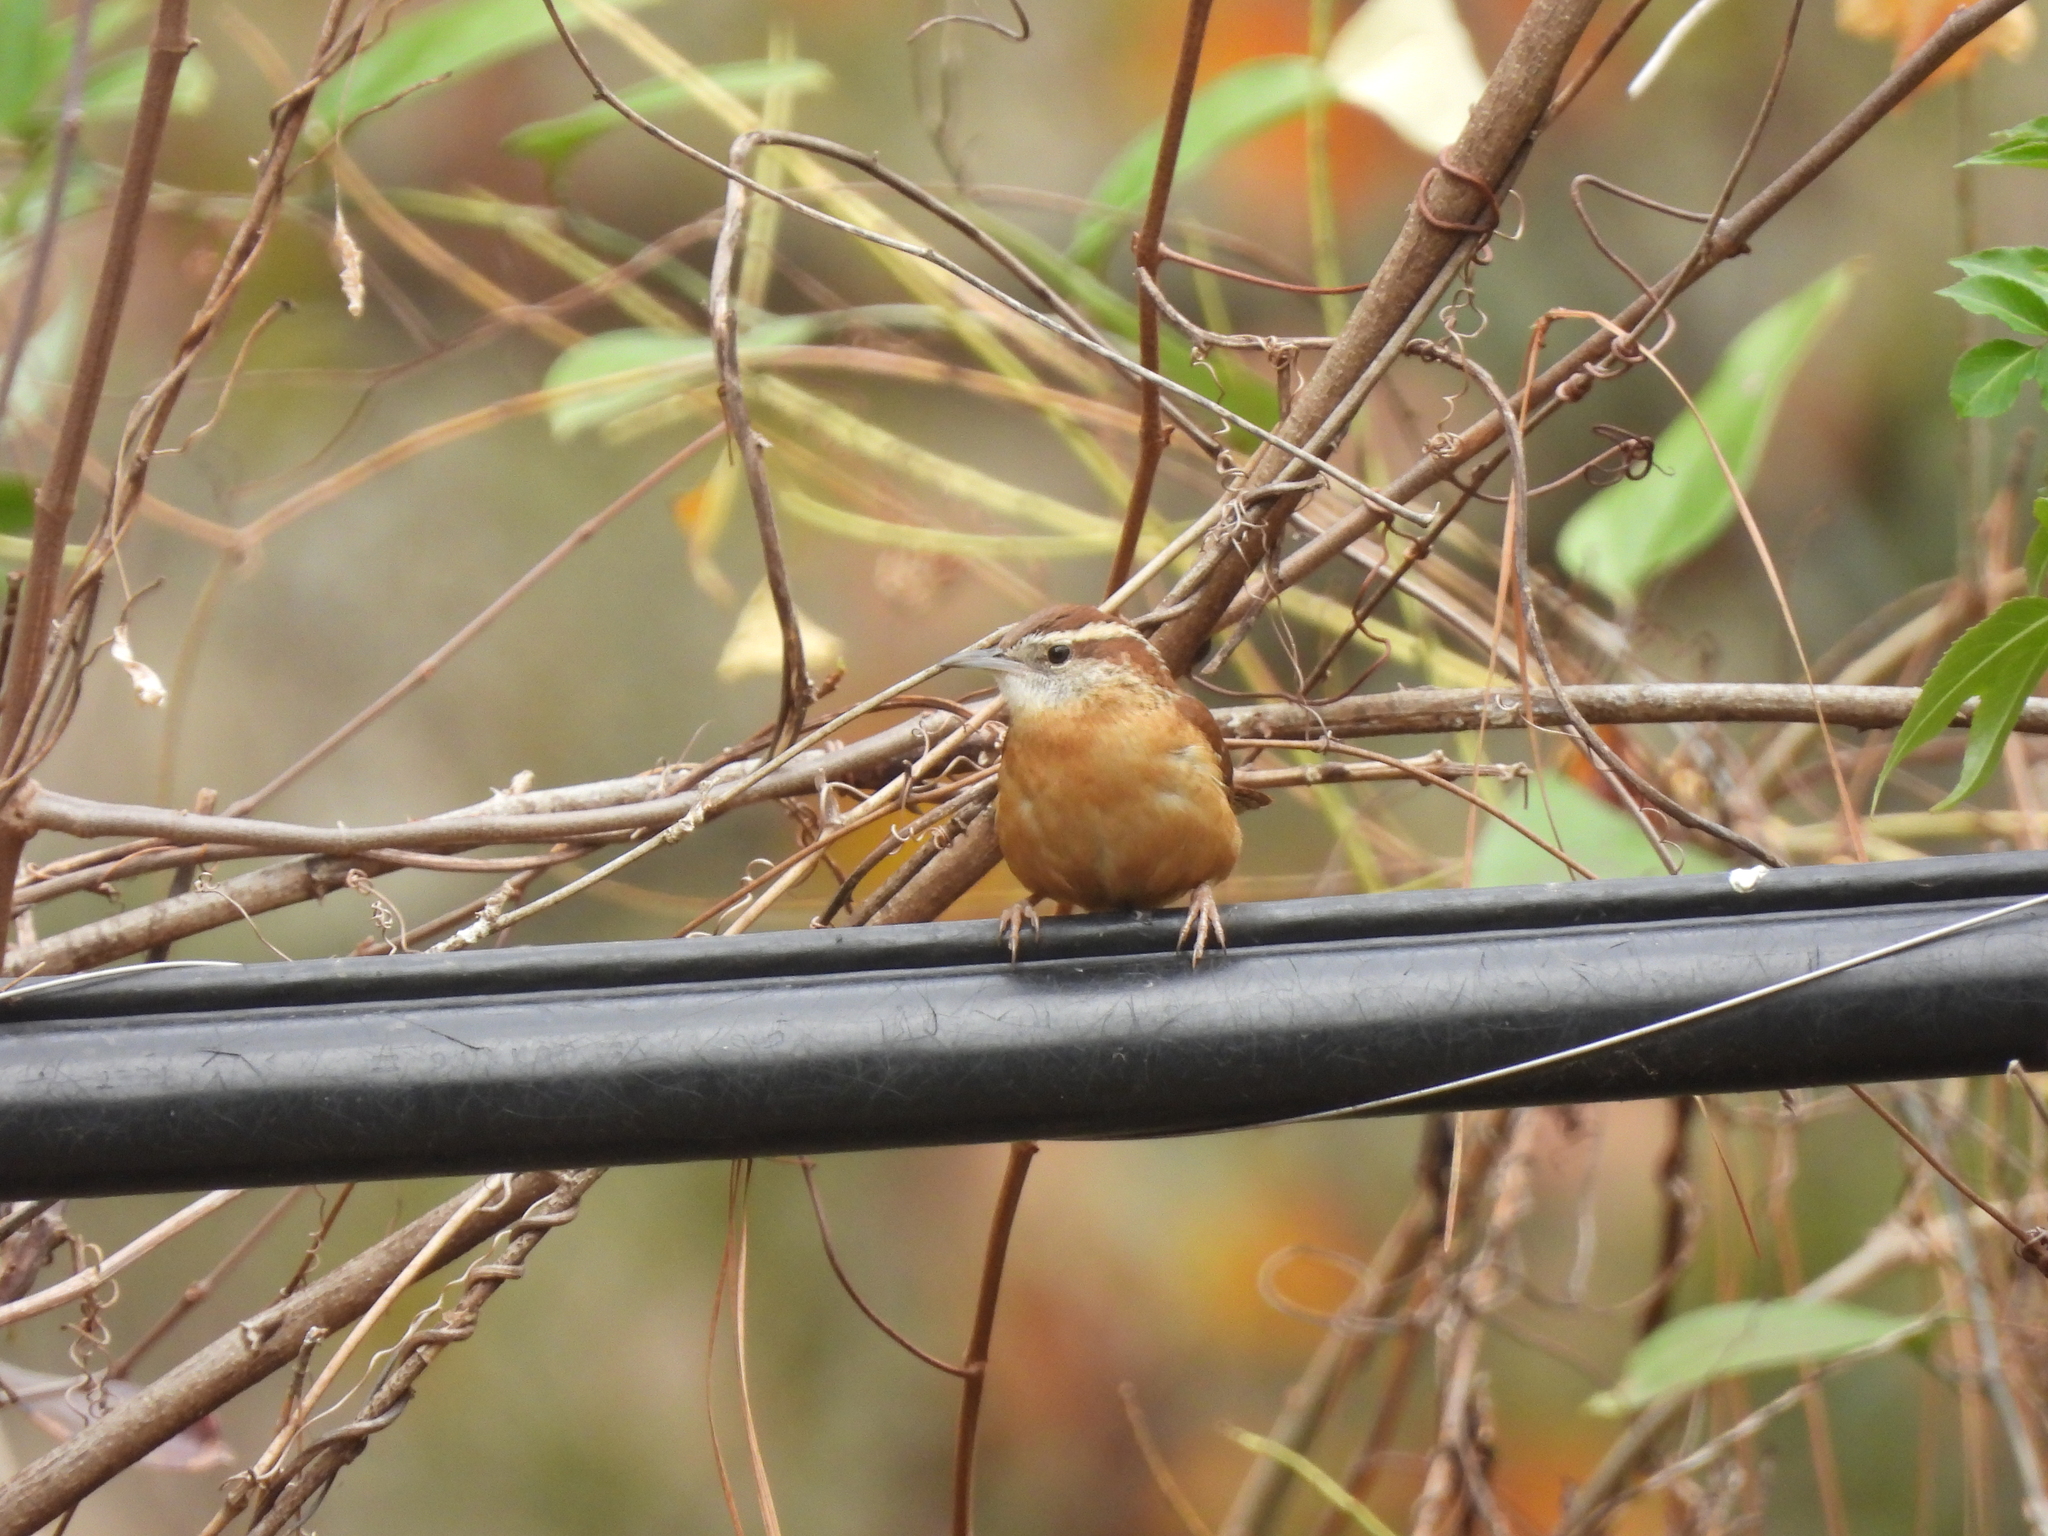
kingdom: Animalia
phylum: Chordata
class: Aves
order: Passeriformes
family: Troglodytidae
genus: Thryothorus
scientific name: Thryothorus ludovicianus
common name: Carolina wren
